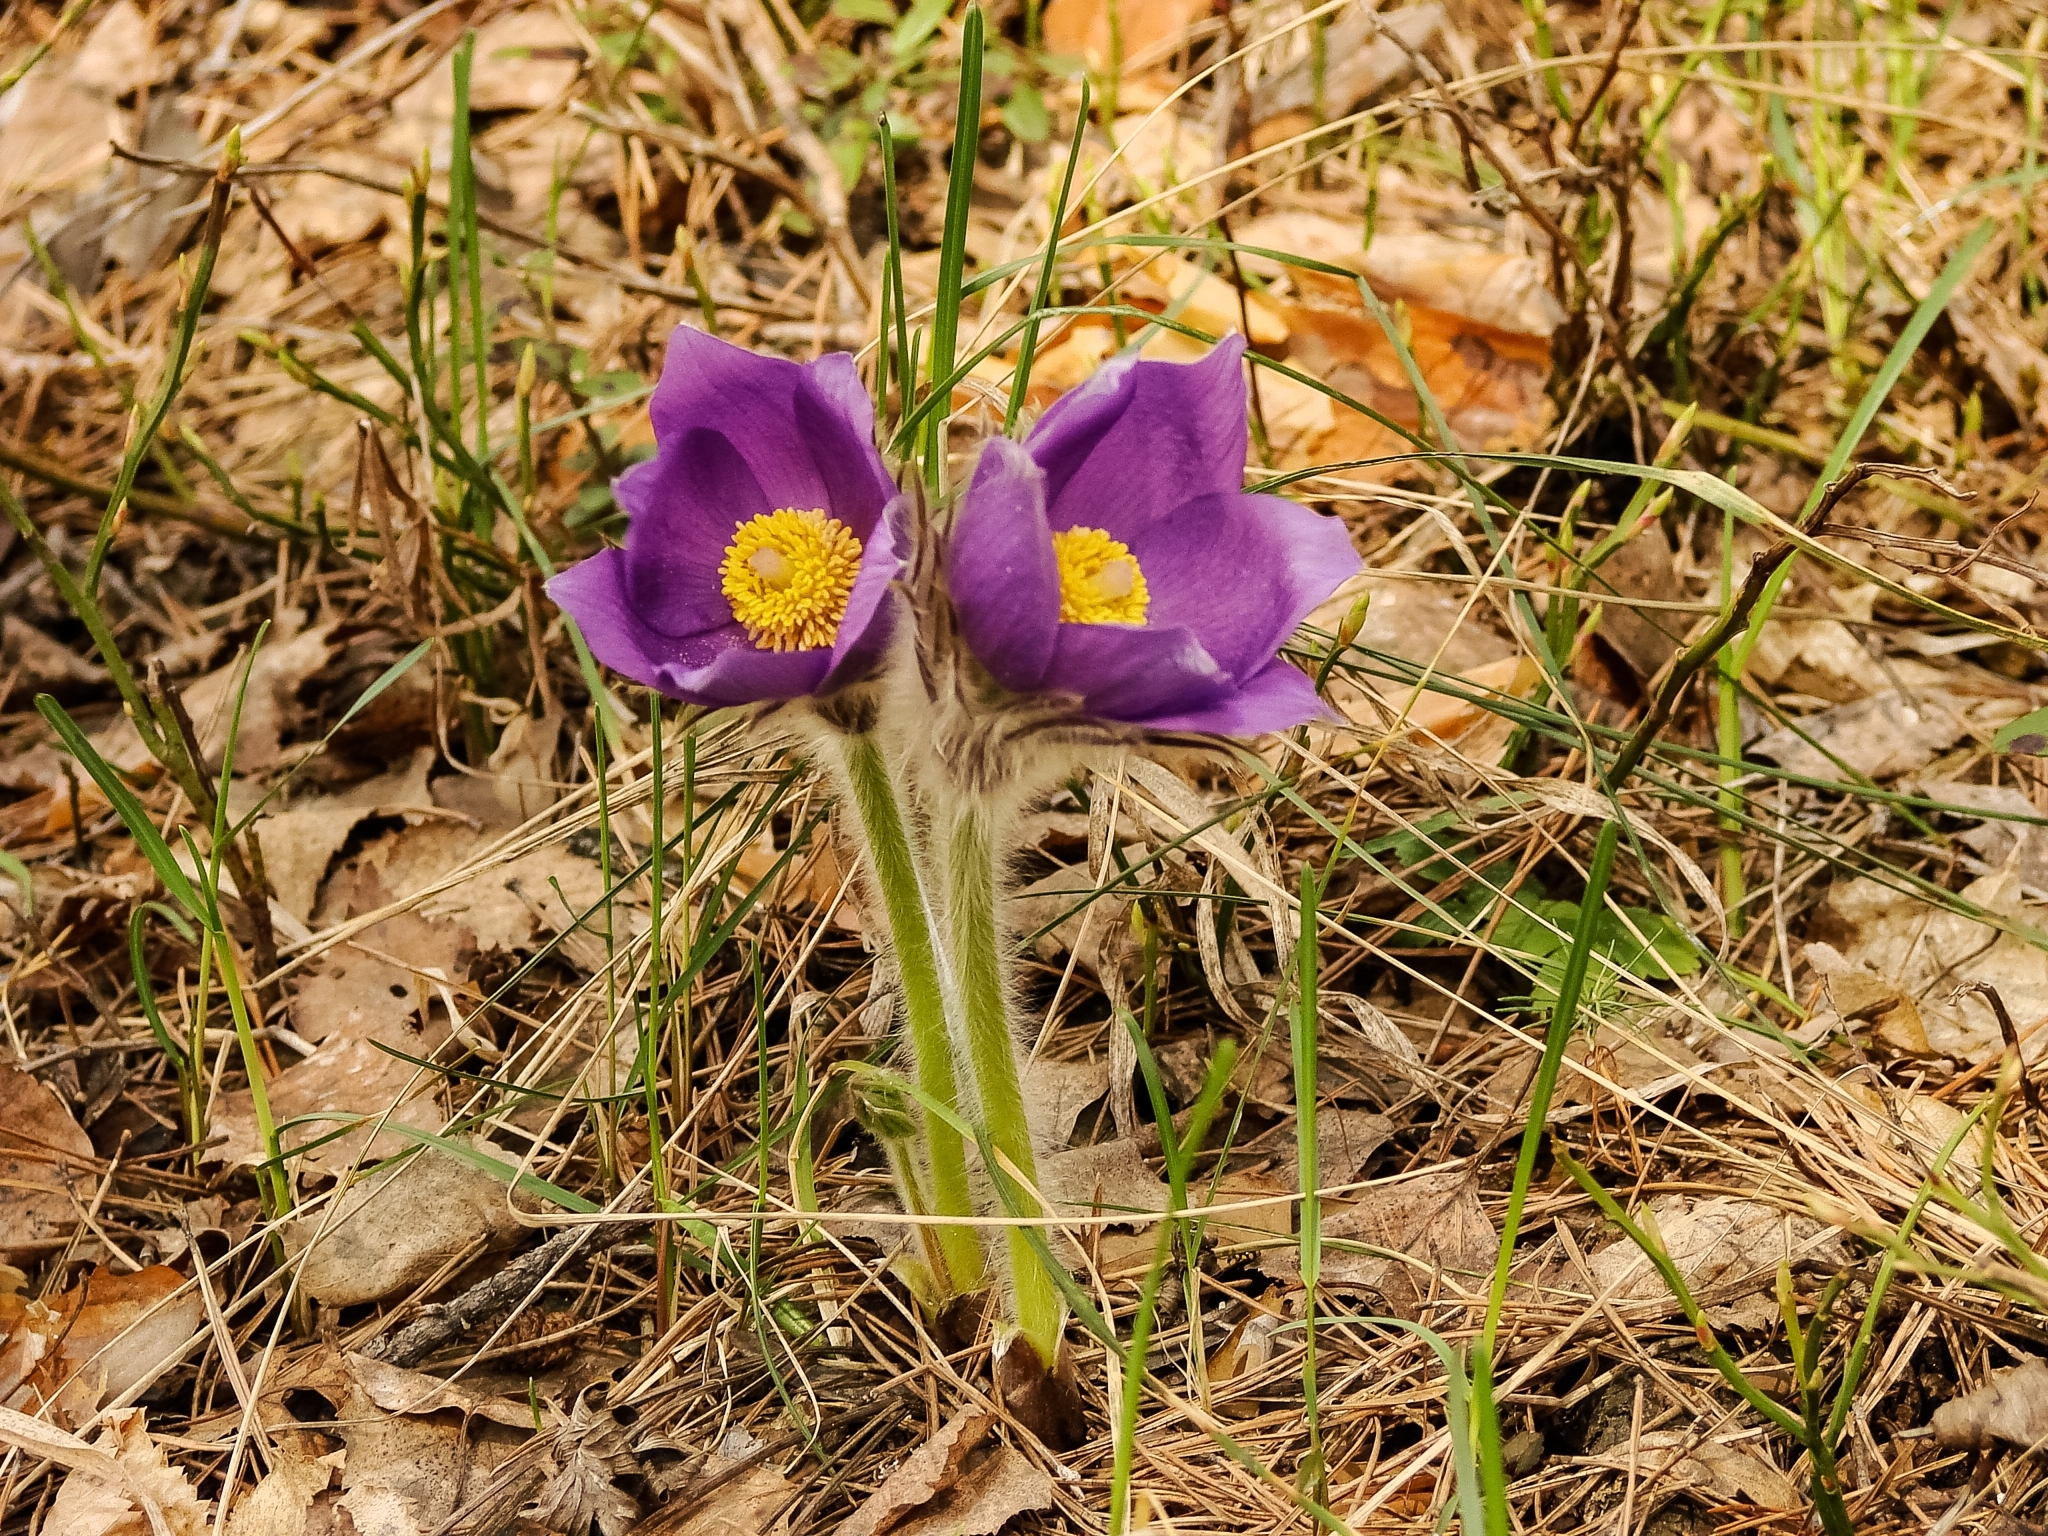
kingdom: Plantae
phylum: Tracheophyta
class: Magnoliopsida
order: Ranunculales
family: Ranunculaceae
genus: Pulsatilla
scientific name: Pulsatilla patens
